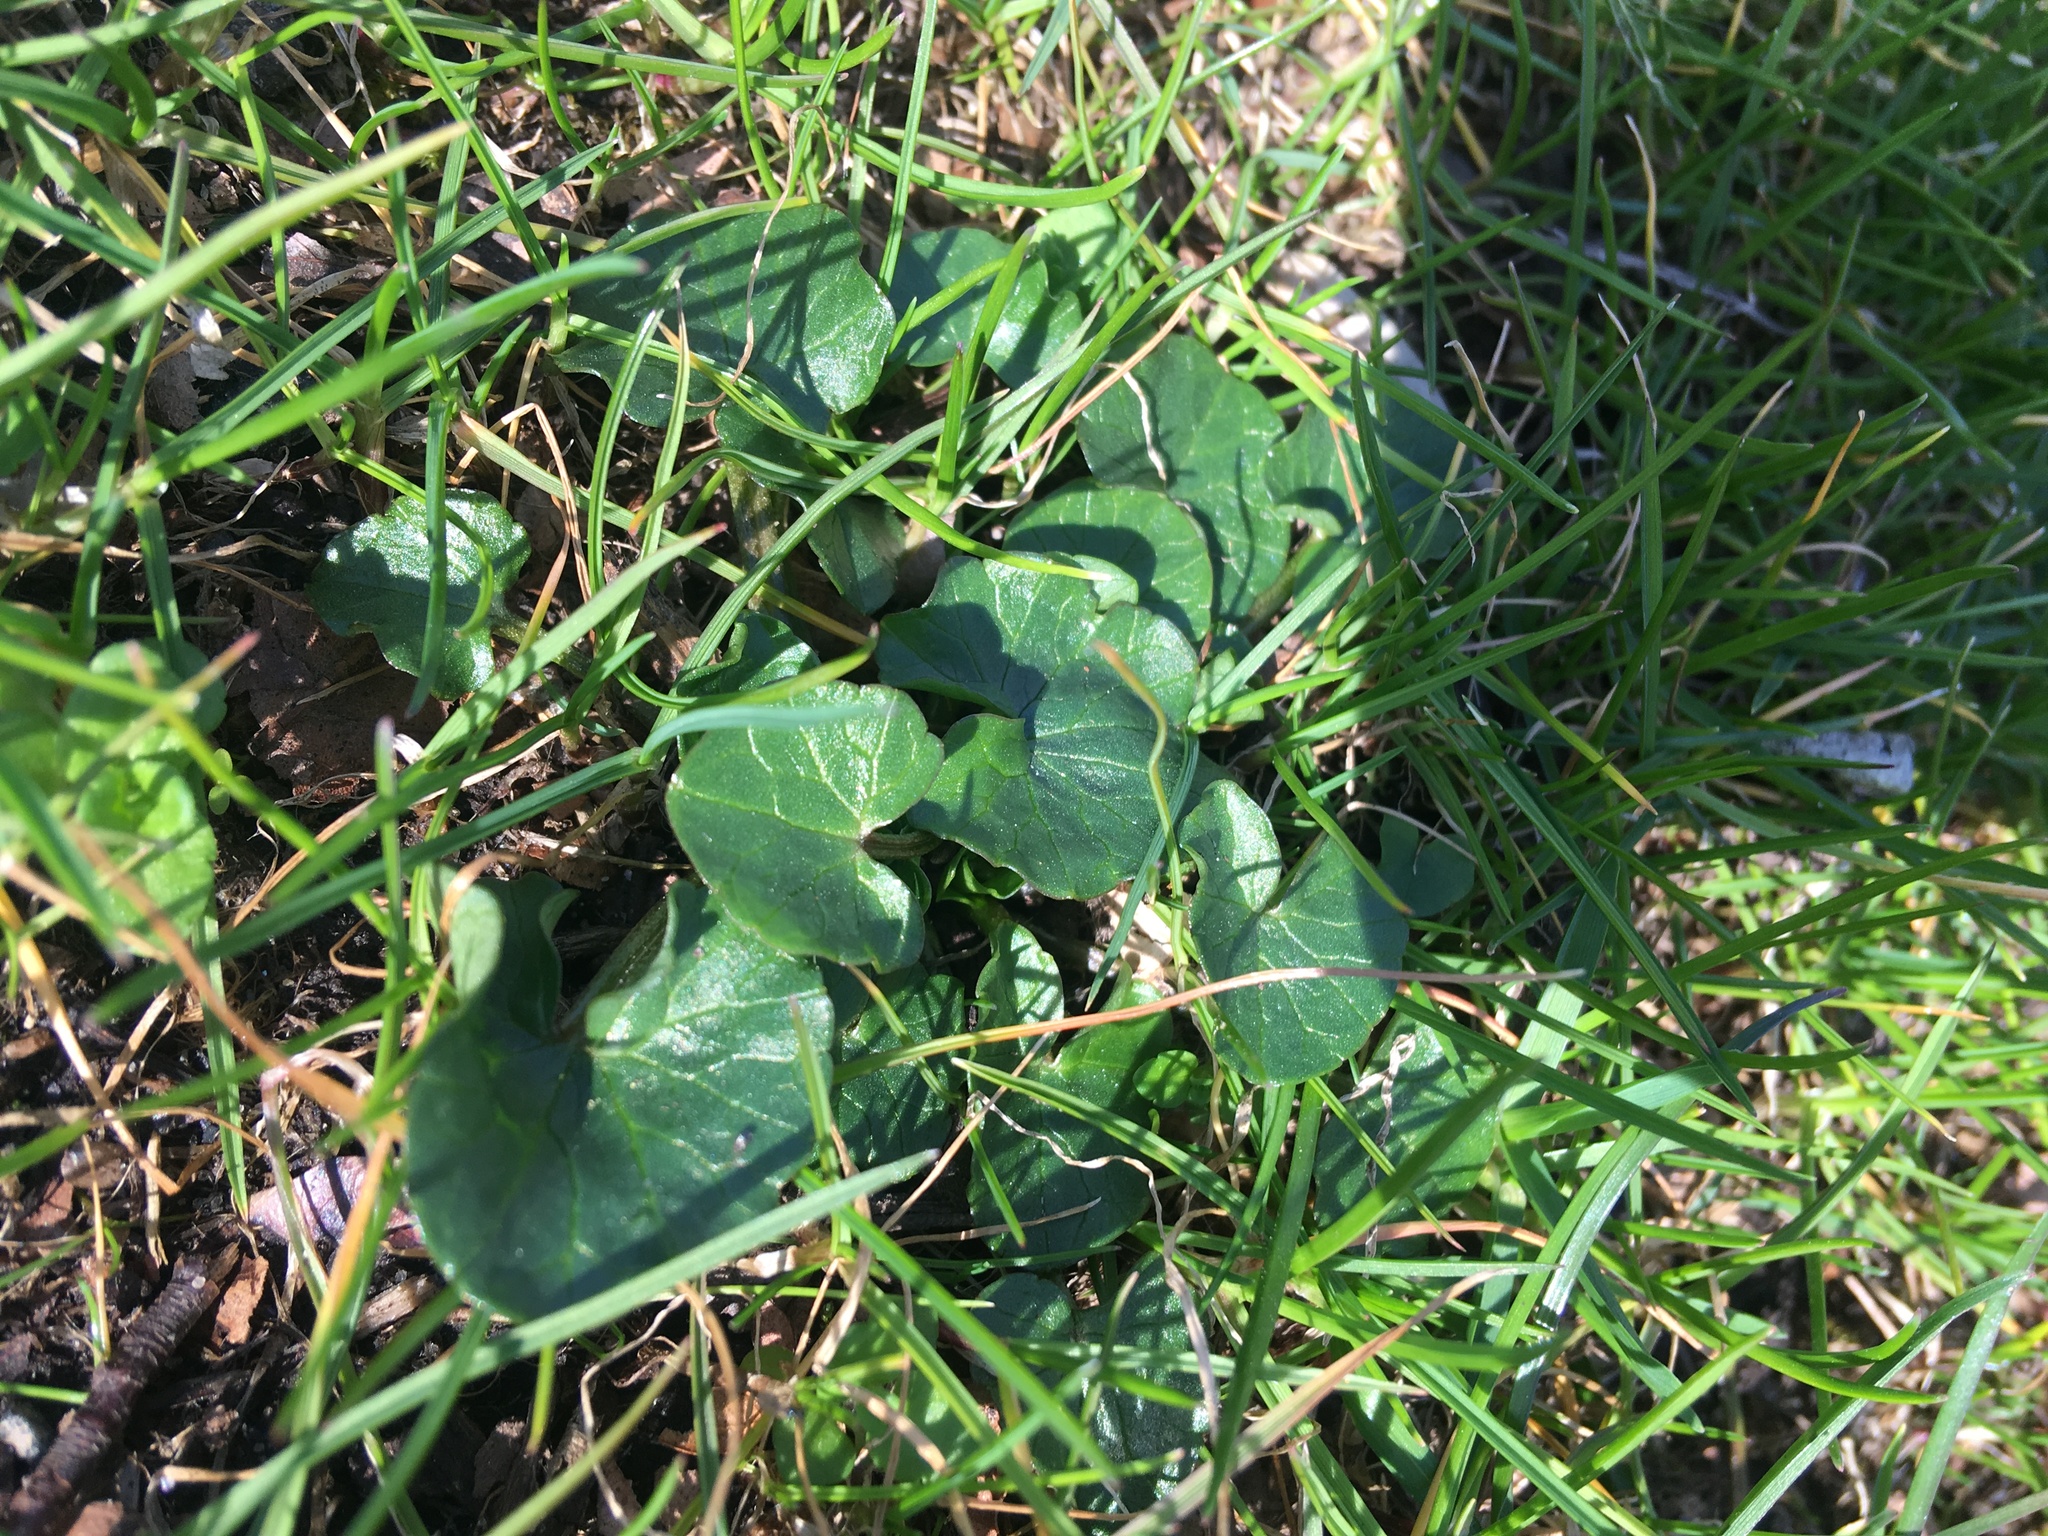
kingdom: Plantae
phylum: Tracheophyta
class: Magnoliopsida
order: Ranunculales
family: Ranunculaceae
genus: Ficaria
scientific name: Ficaria verna
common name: Lesser celandine
